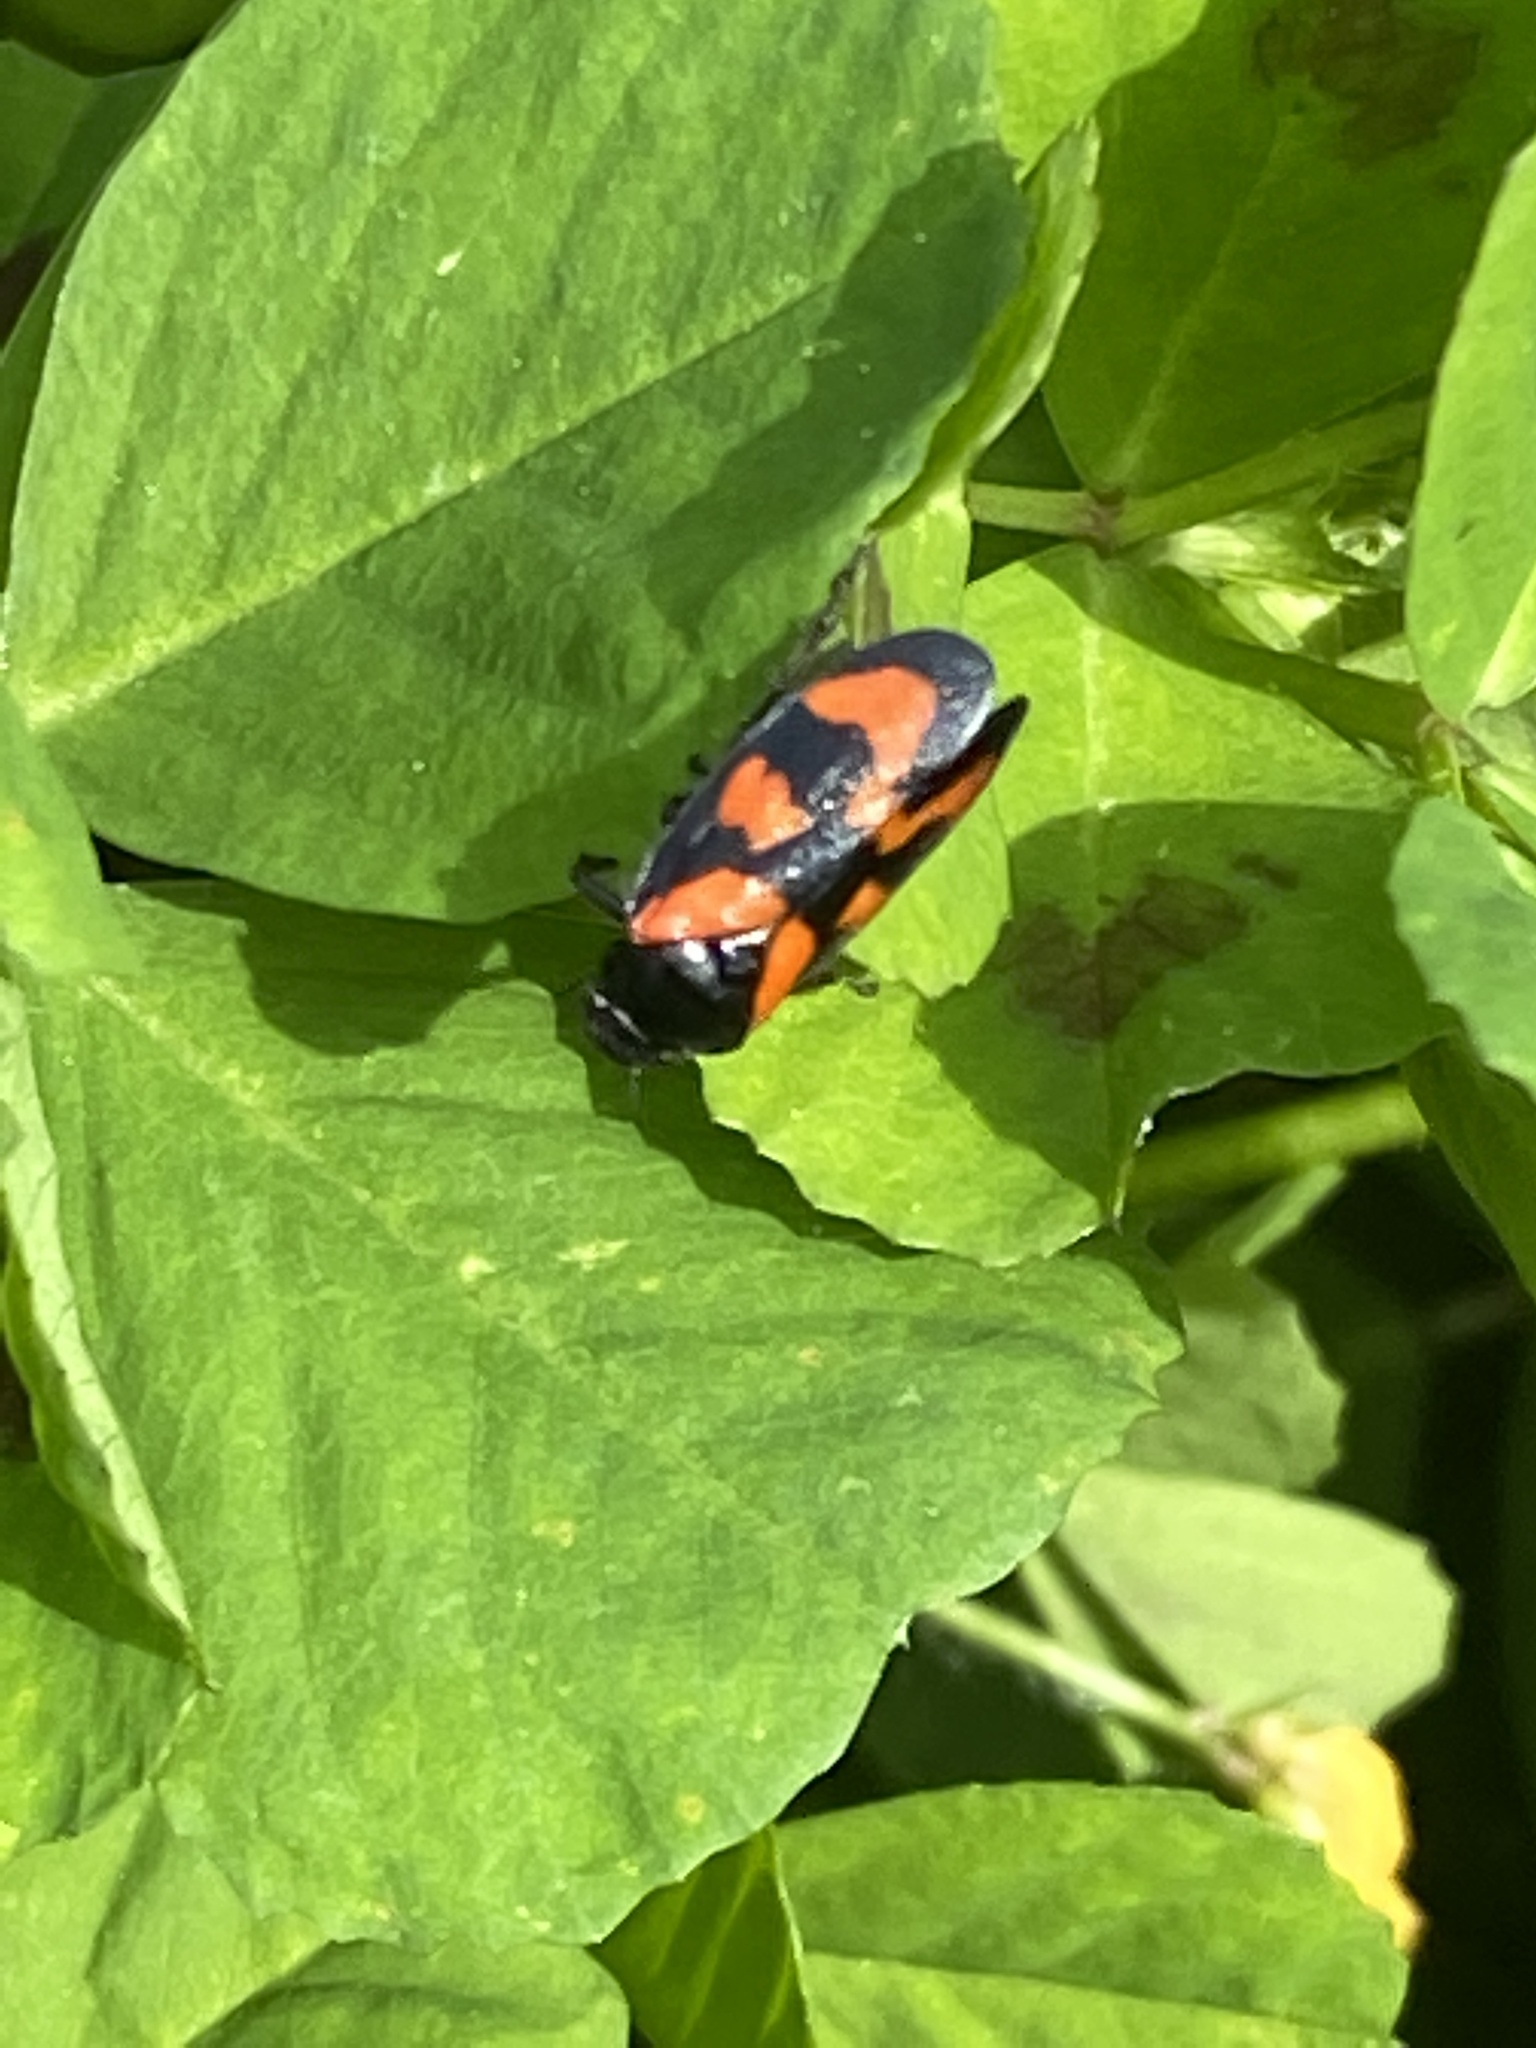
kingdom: Animalia
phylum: Arthropoda
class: Insecta
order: Hemiptera
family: Cercopidae
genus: Cercopis
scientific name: Cercopis vulnerata
